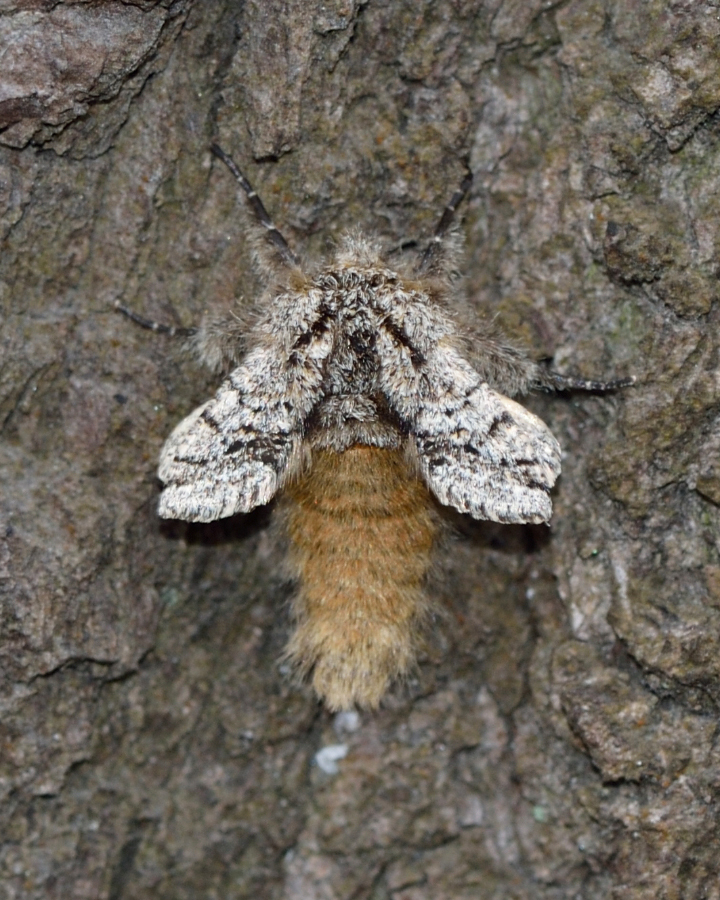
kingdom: Animalia
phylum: Arthropoda
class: Insecta
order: Lepidoptera
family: Geometridae
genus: Lycia
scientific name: Lycia hirtaria
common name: Brindled beauty
